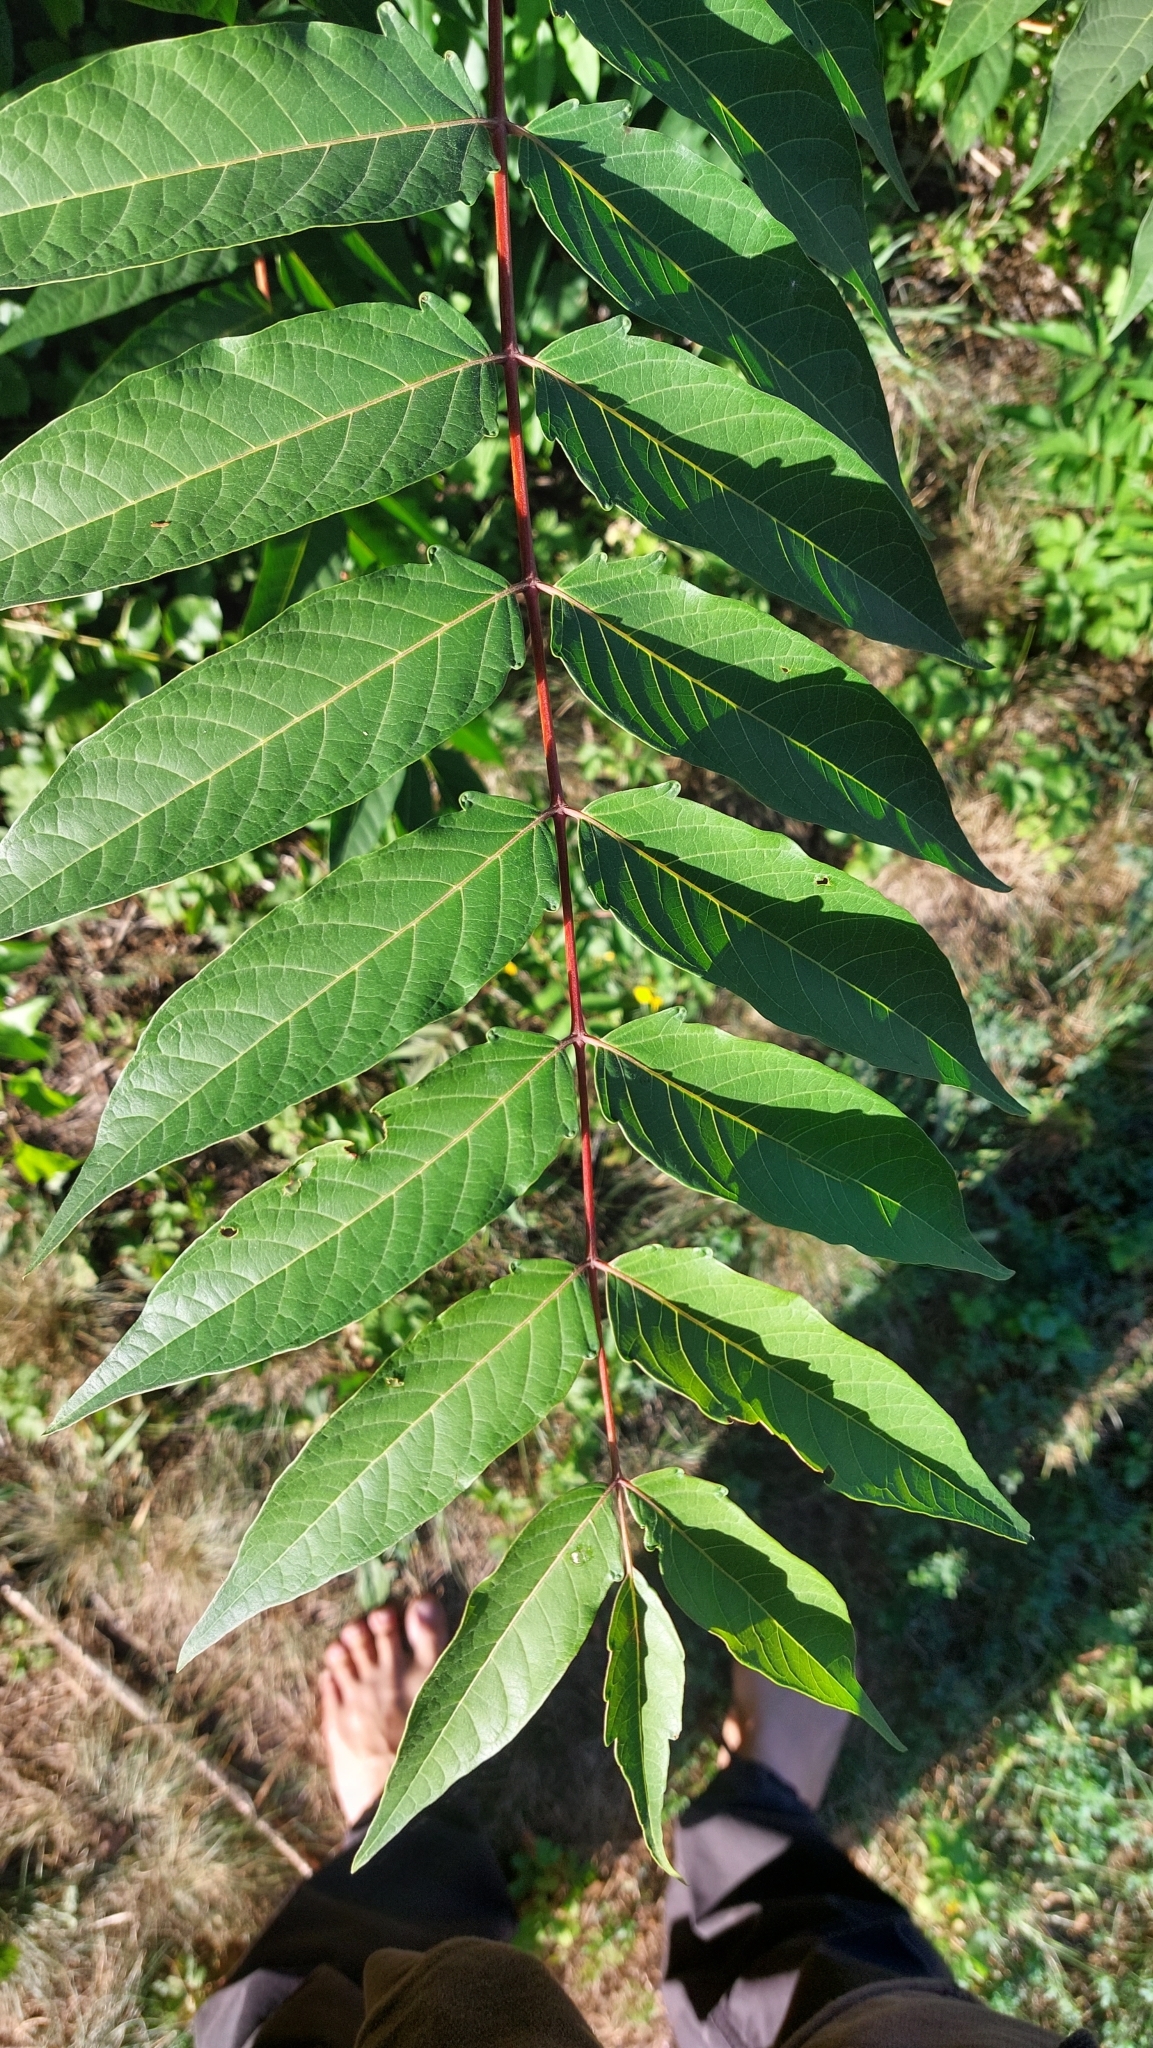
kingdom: Plantae
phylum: Tracheophyta
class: Magnoliopsida
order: Sapindales
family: Simaroubaceae
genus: Ailanthus
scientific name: Ailanthus altissima
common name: Tree-of-heaven
